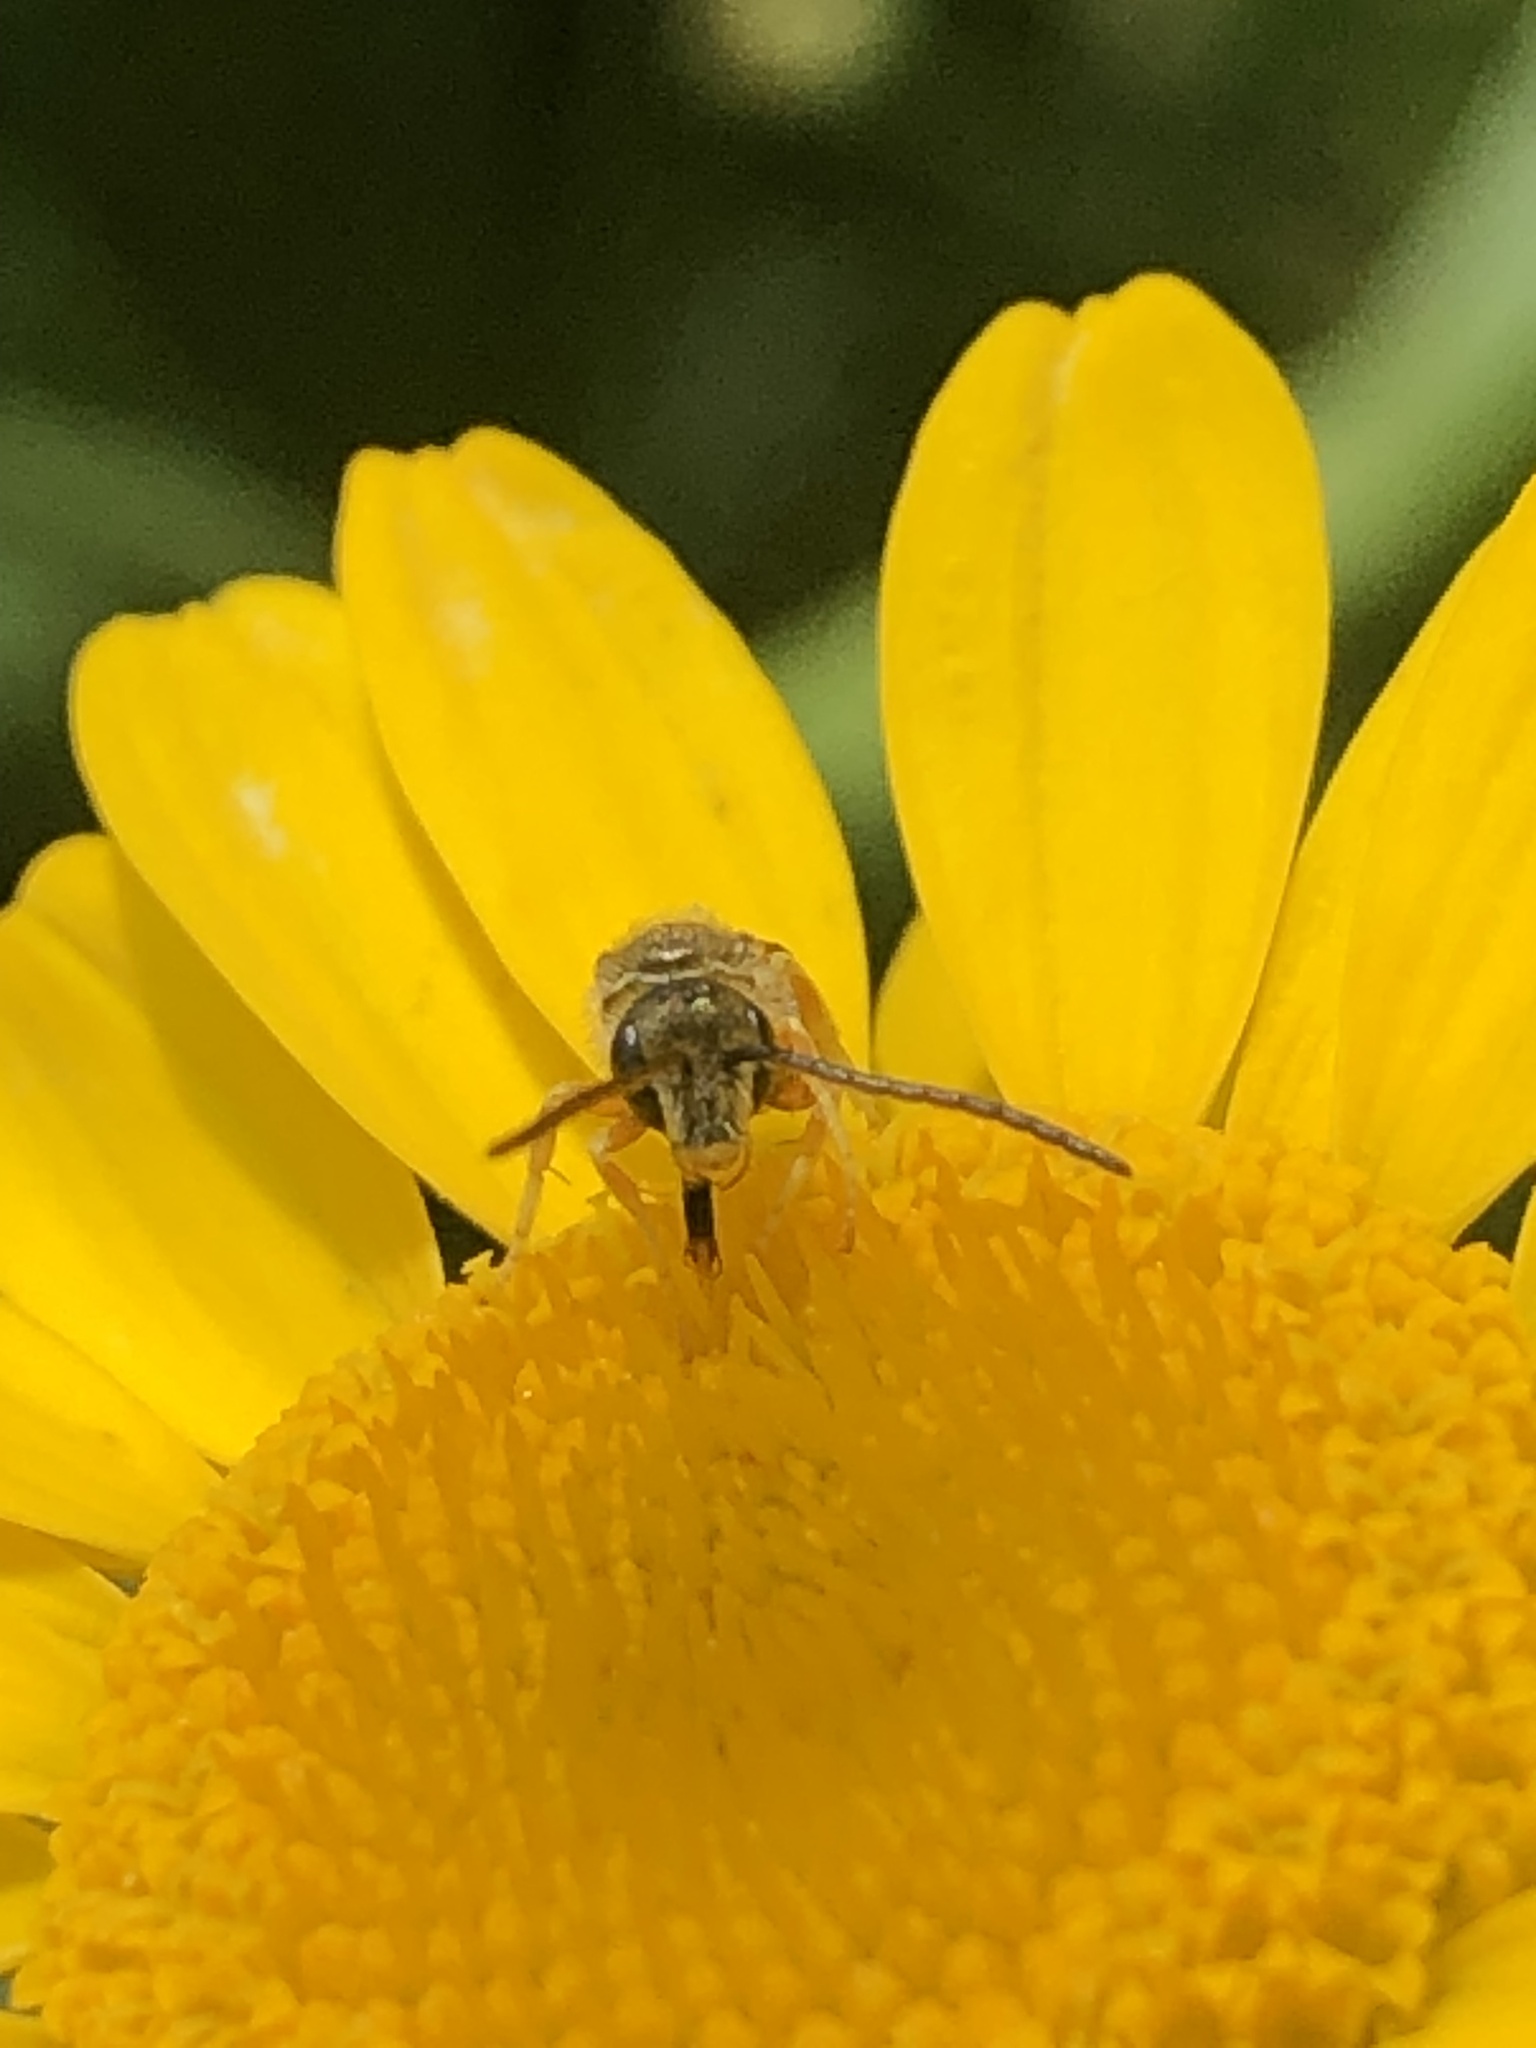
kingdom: Animalia
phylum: Arthropoda
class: Insecta
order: Hymenoptera
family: Halictidae
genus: Halictus
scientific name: Halictus tumulorum
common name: Bronze furrow bee
